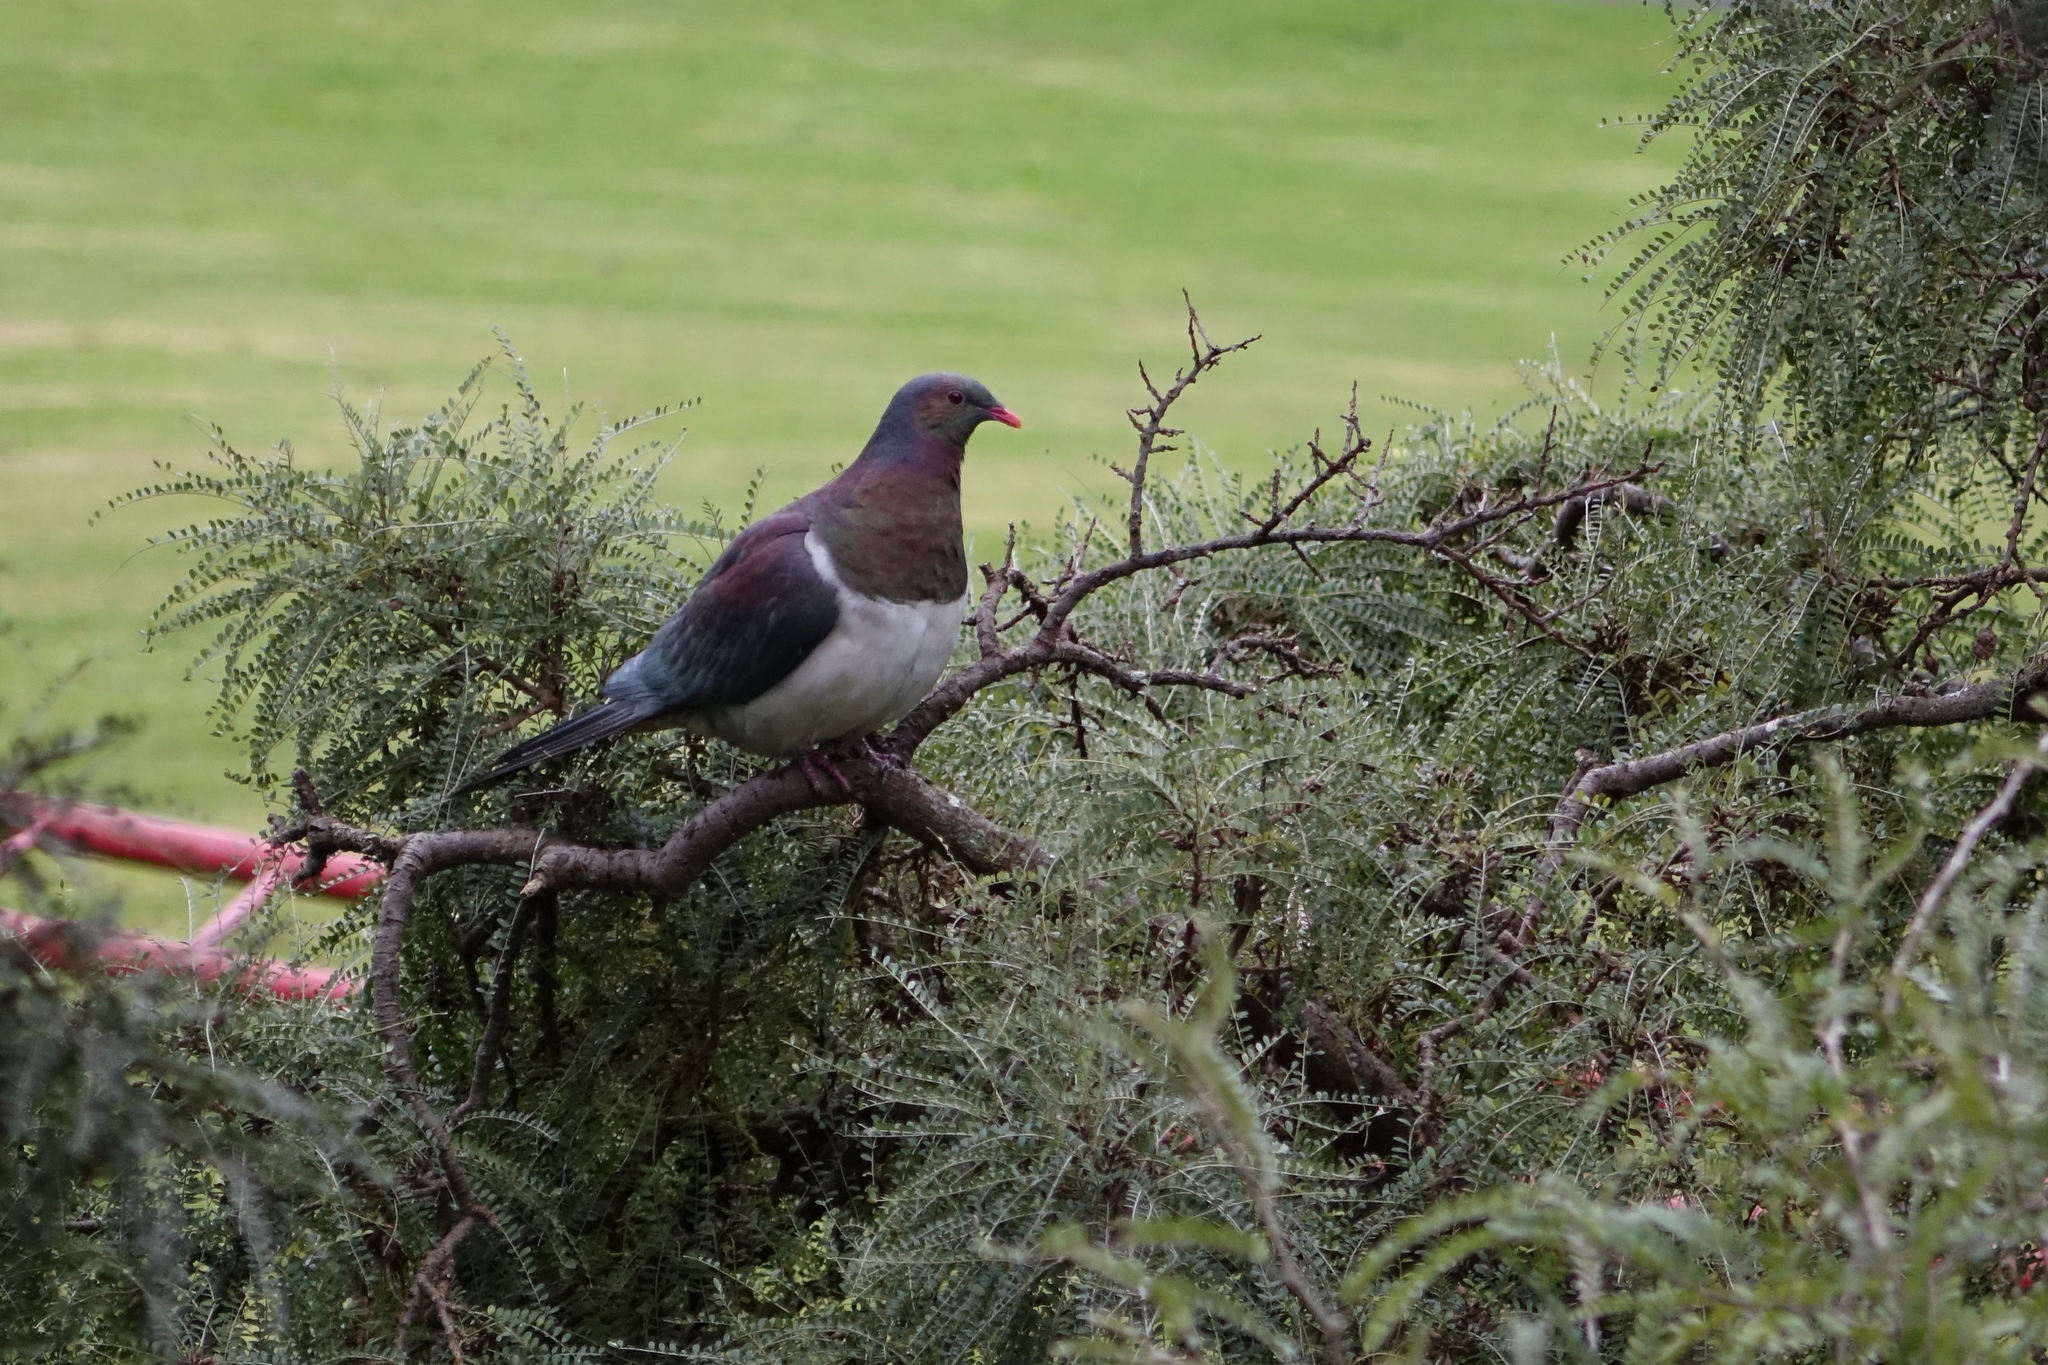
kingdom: Animalia
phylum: Chordata
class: Aves
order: Columbiformes
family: Columbidae
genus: Hemiphaga
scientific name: Hemiphaga novaeseelandiae
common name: New zealand pigeon
